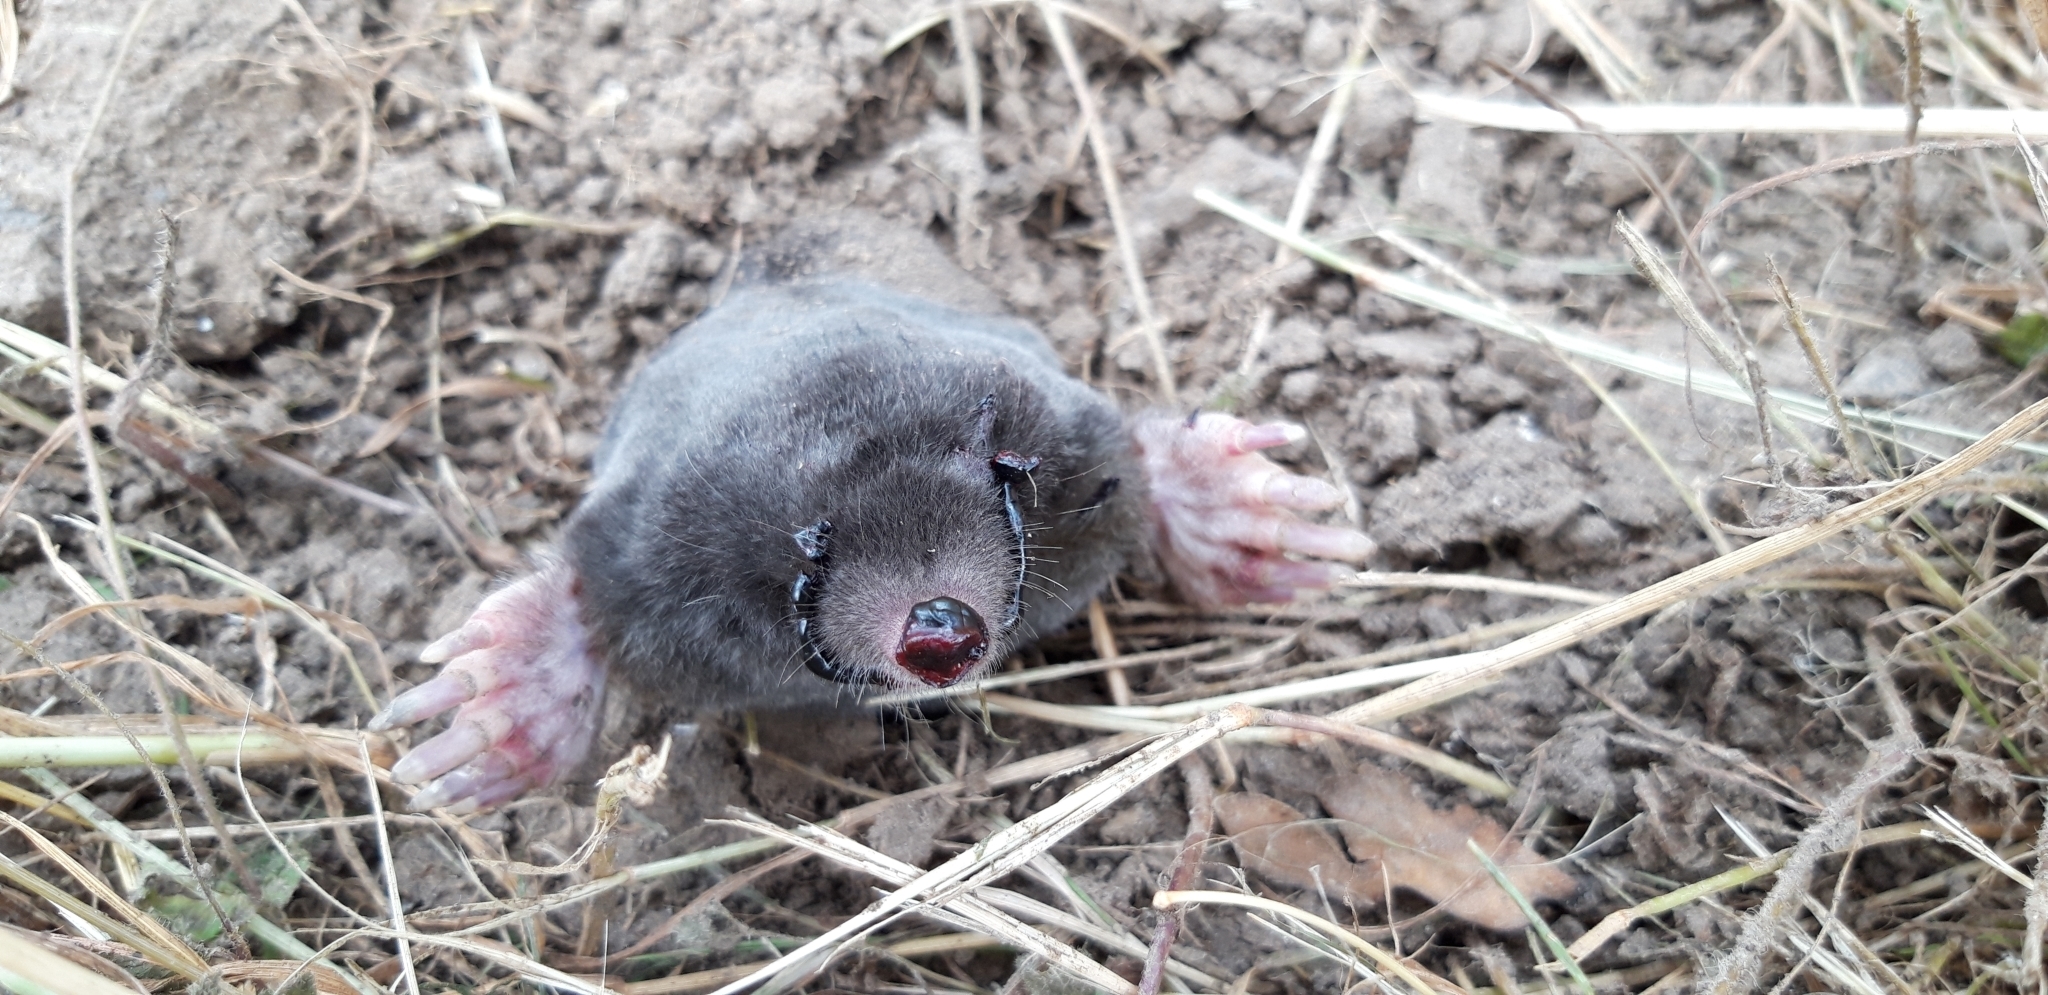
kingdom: Animalia
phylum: Chordata
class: Mammalia
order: Soricomorpha
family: Talpidae
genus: Talpa
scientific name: Talpa europaea
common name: European mole
